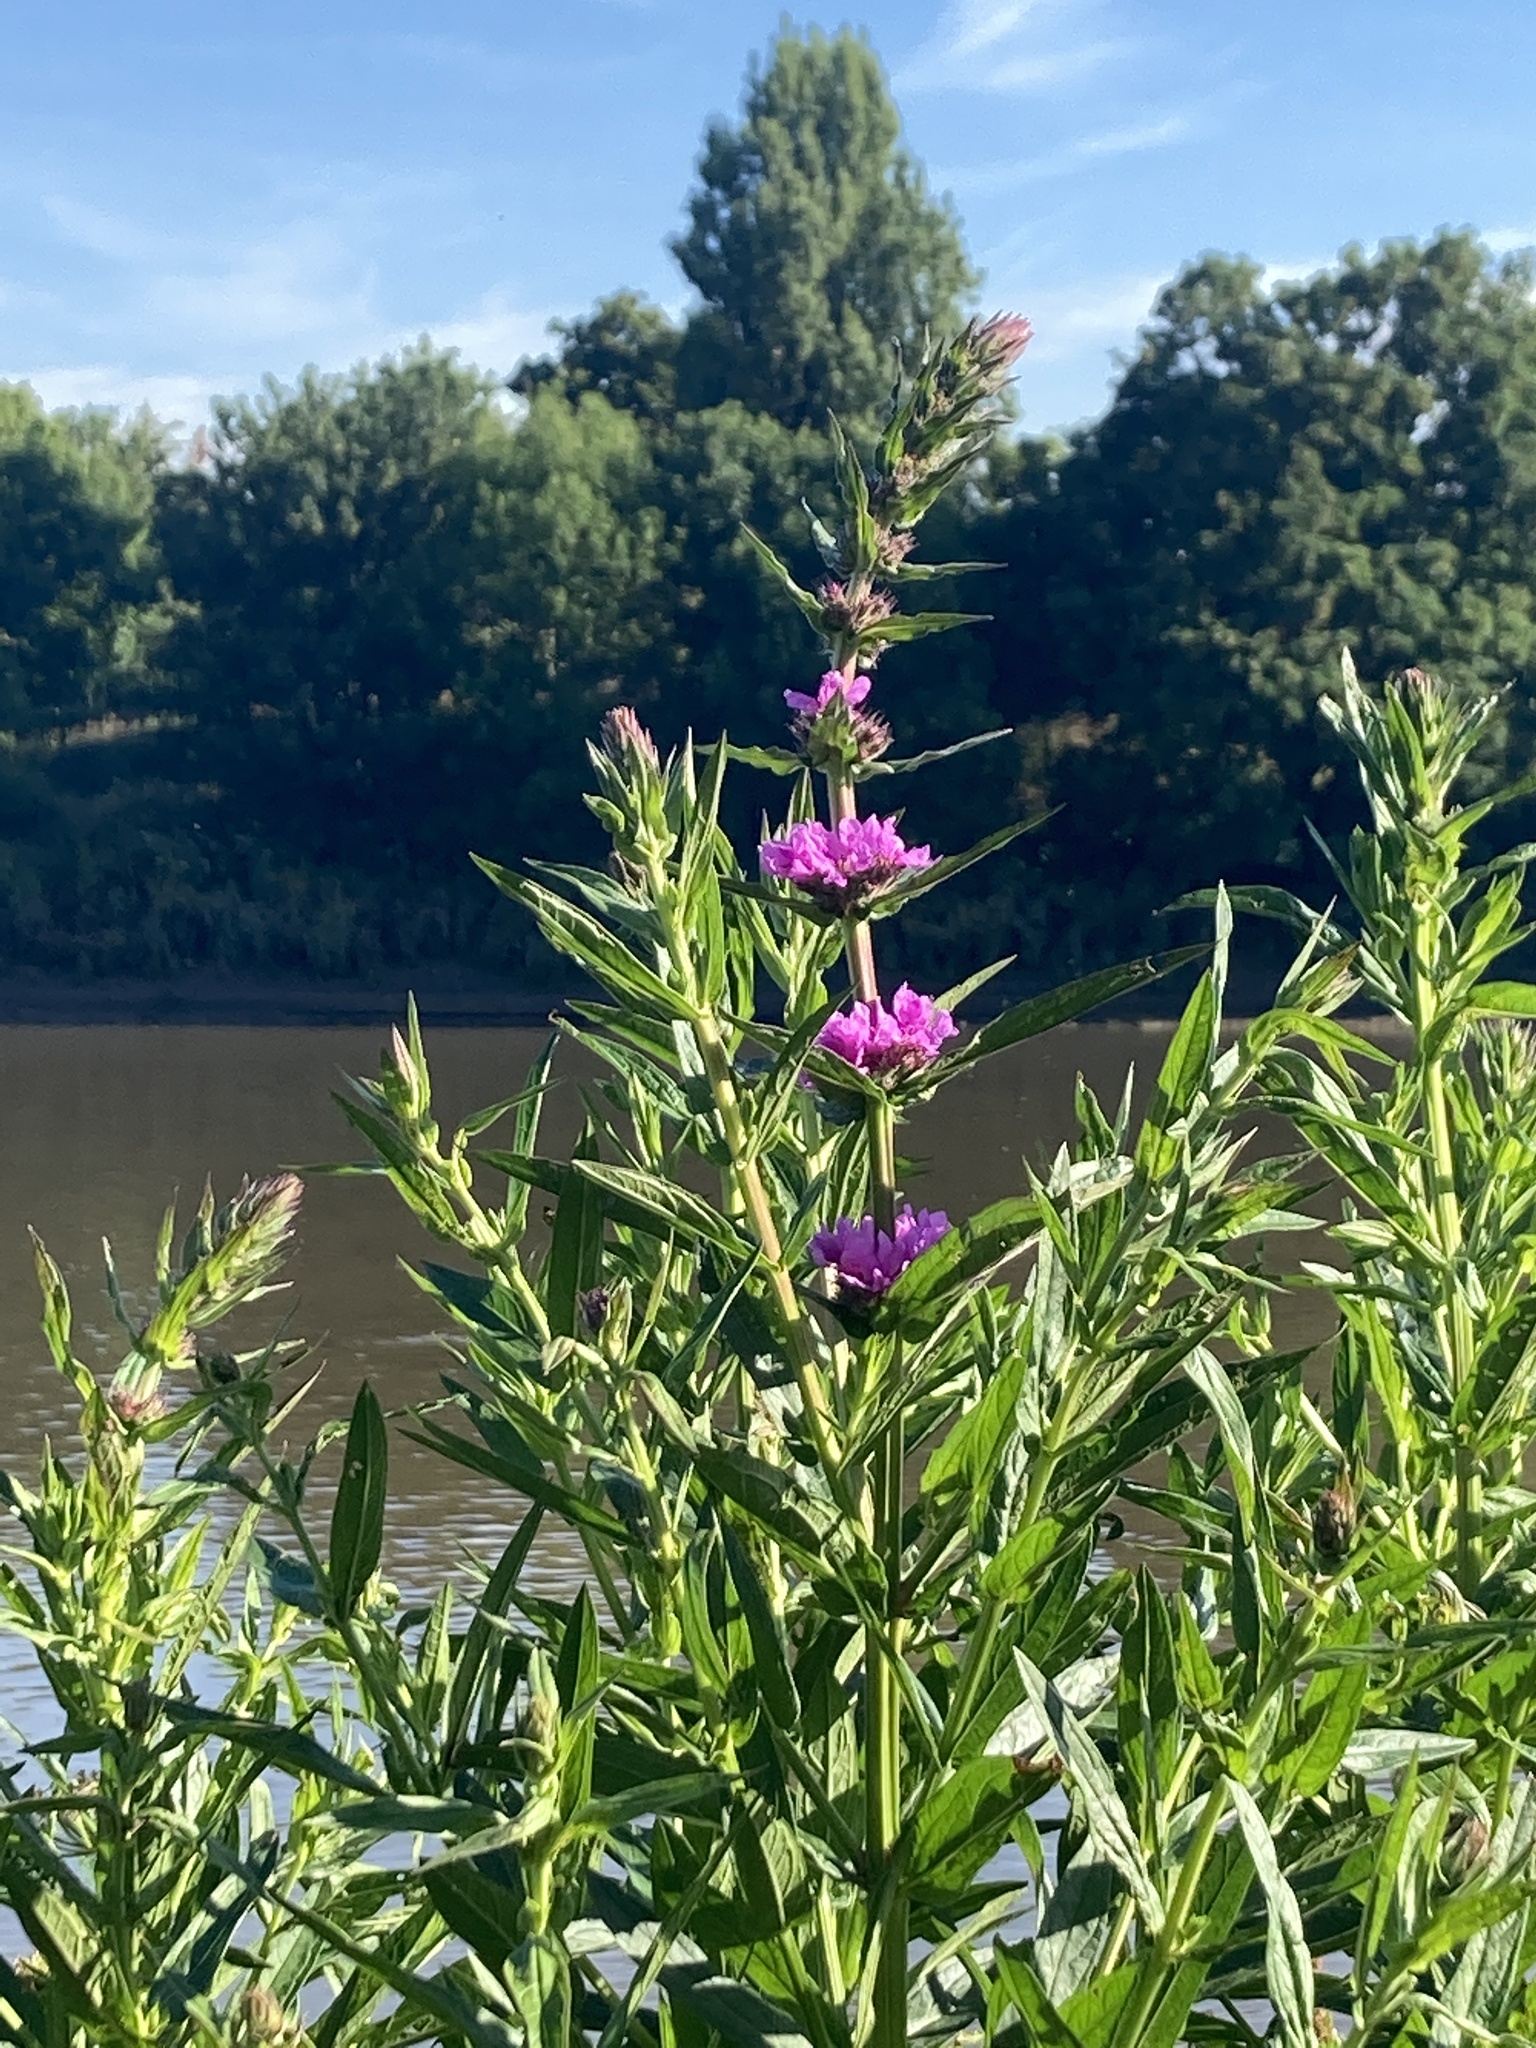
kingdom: Plantae
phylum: Tracheophyta
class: Magnoliopsida
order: Myrtales
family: Lythraceae
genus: Lythrum
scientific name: Lythrum salicaria
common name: Purple loosestrife
